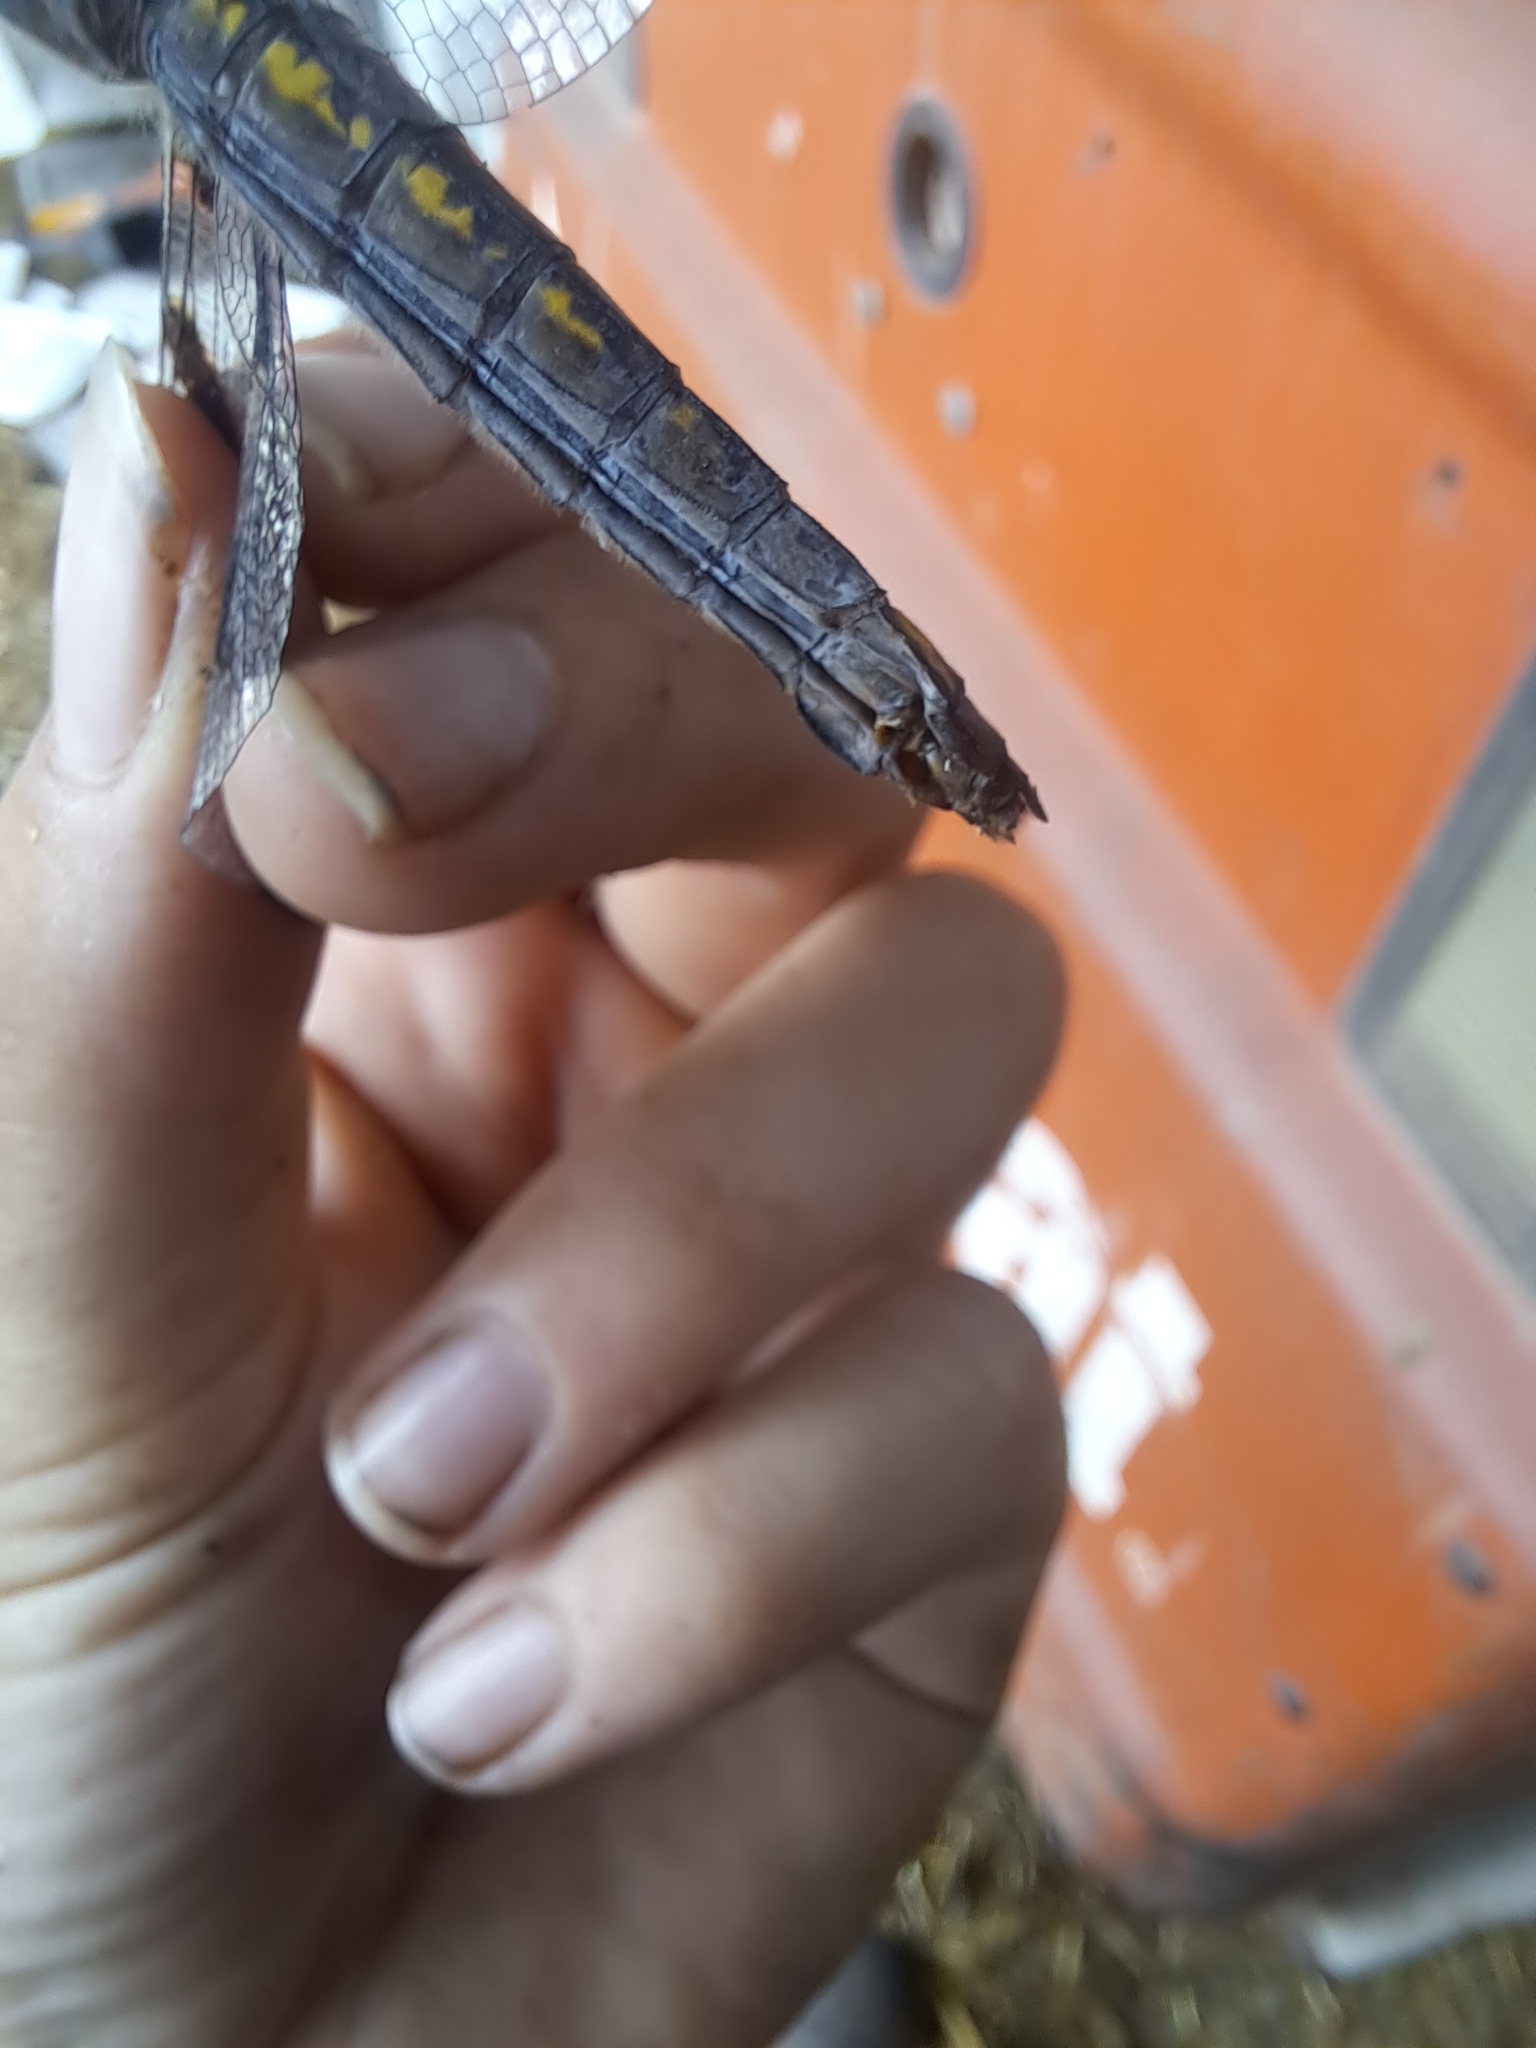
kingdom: Animalia
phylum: Arthropoda
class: Insecta
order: Odonata
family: Libellulidae
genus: Libellula
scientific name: Libellula pulchella
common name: Twelve-spotted skimmer
